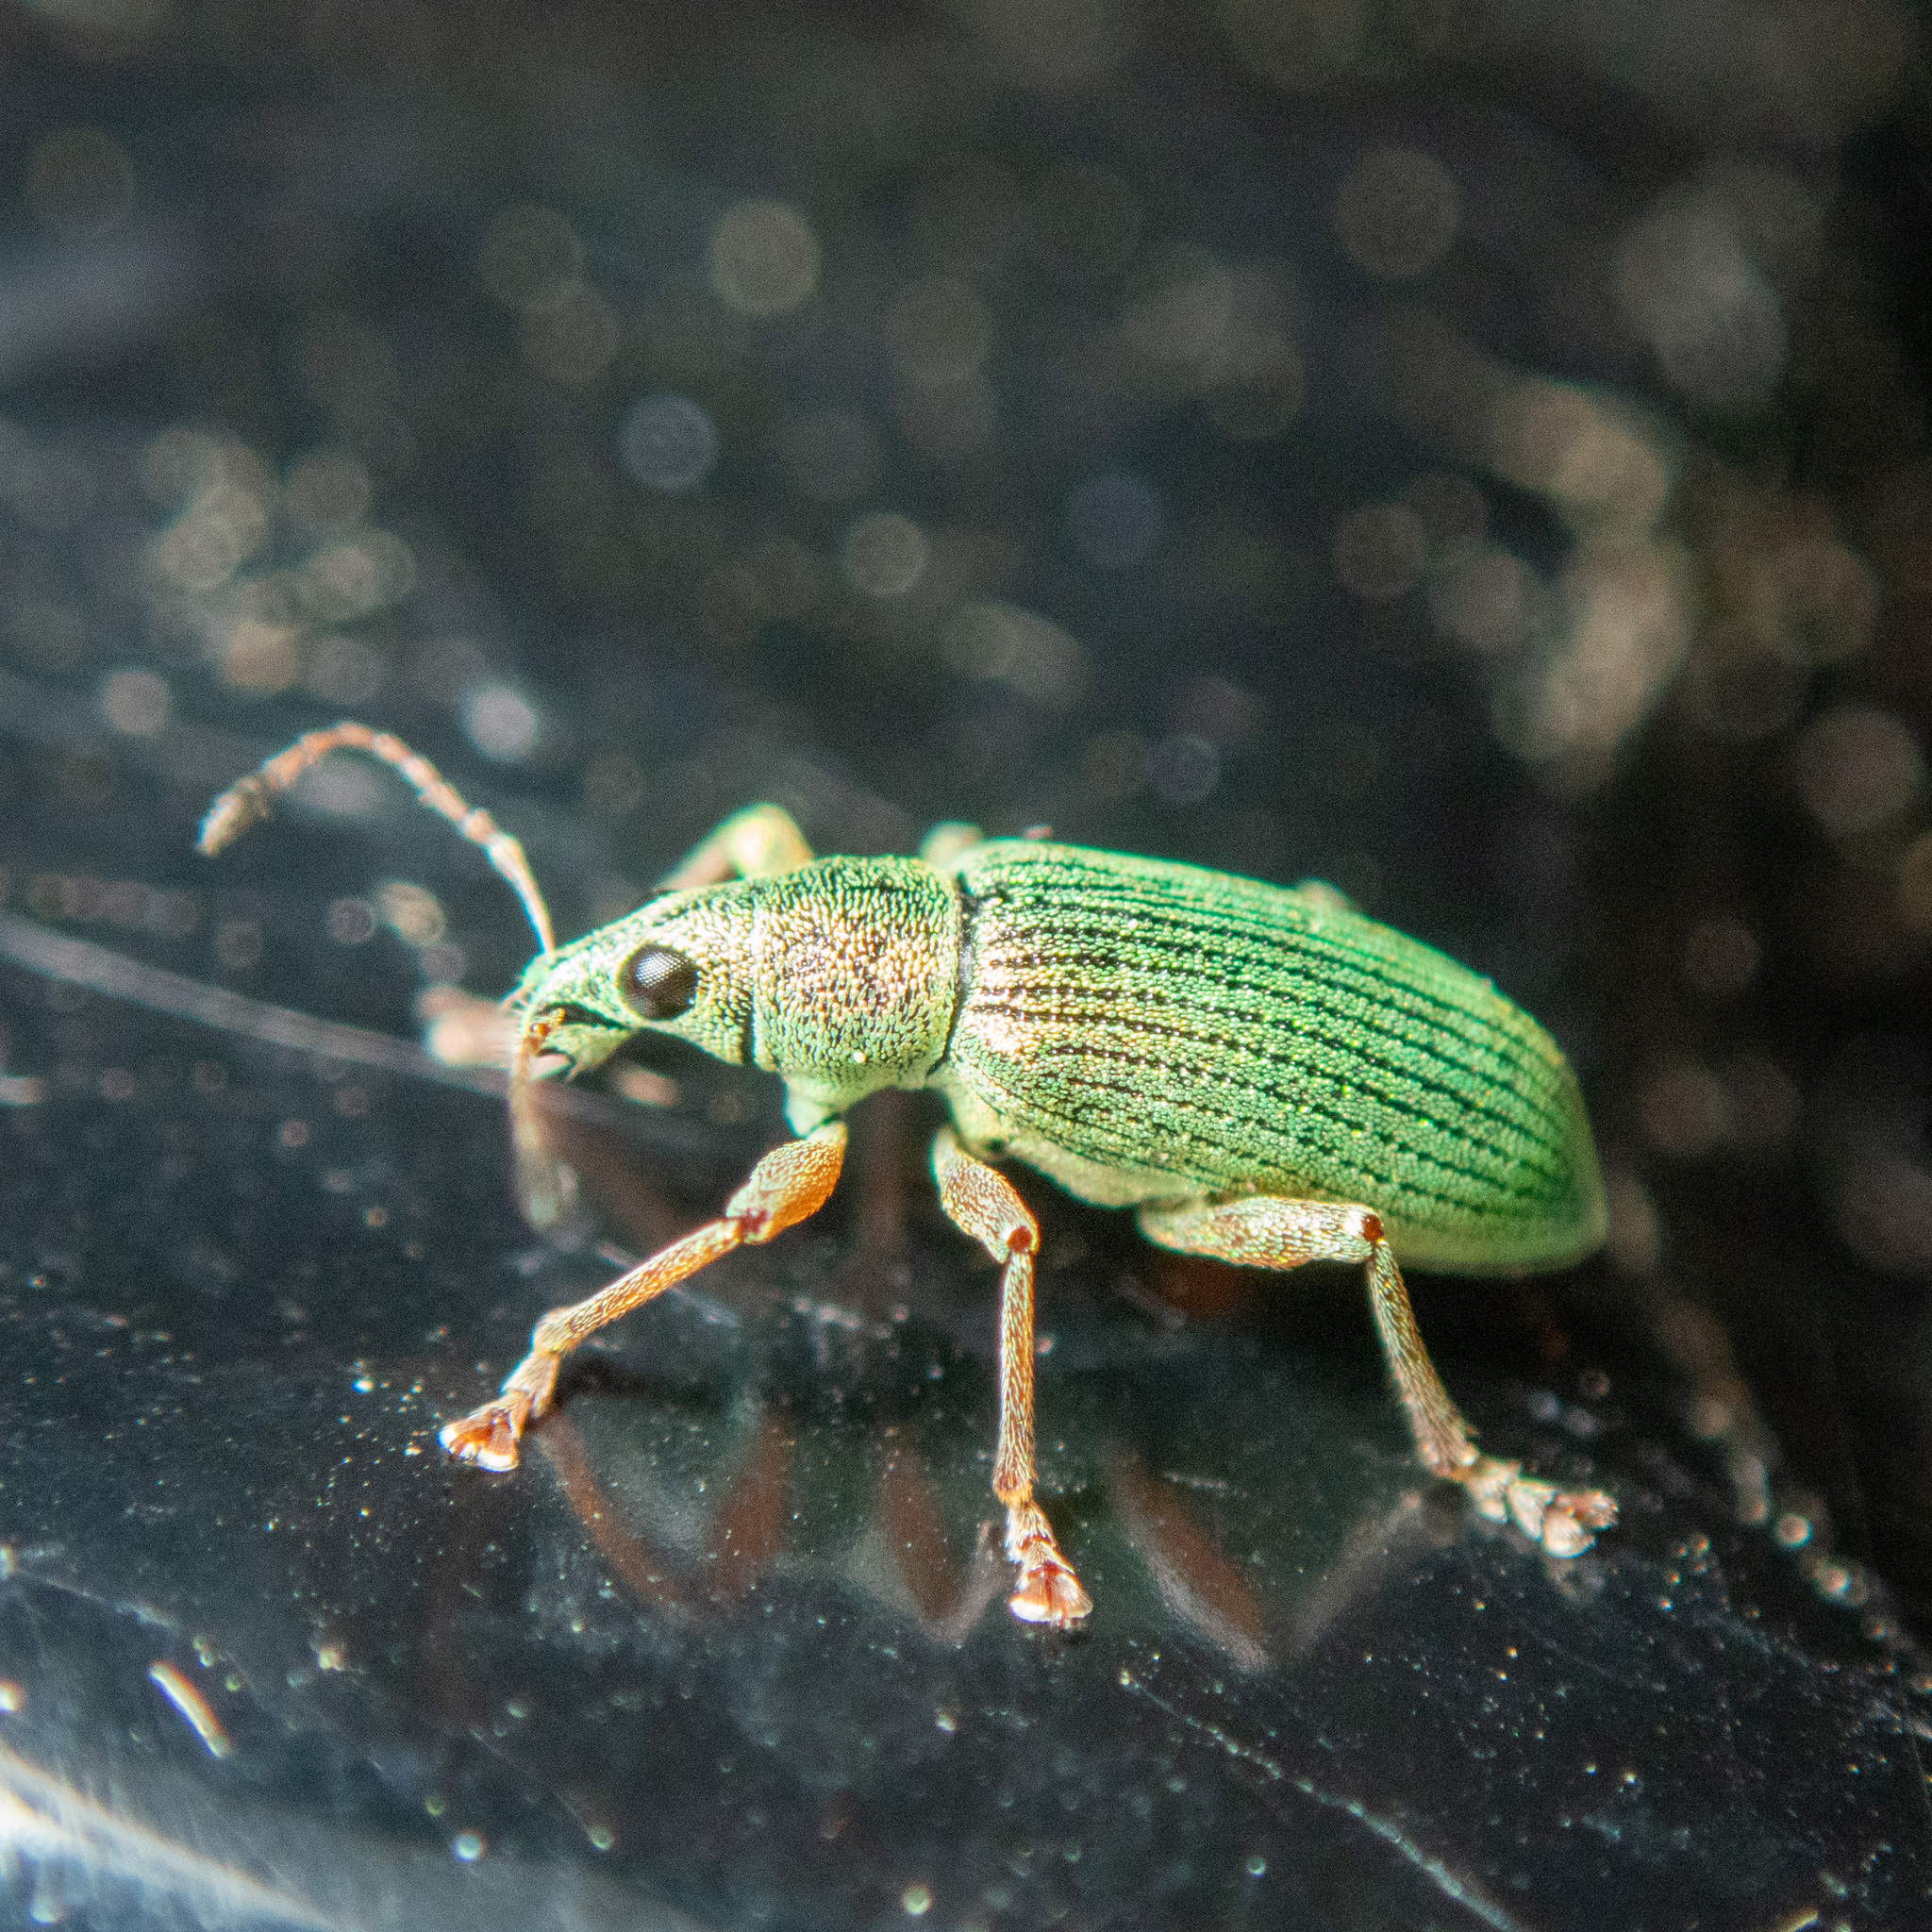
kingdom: Animalia
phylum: Arthropoda
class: Insecta
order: Coleoptera
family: Curculionidae
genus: Polydrusus
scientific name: Polydrusus formosus
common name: Weevil
